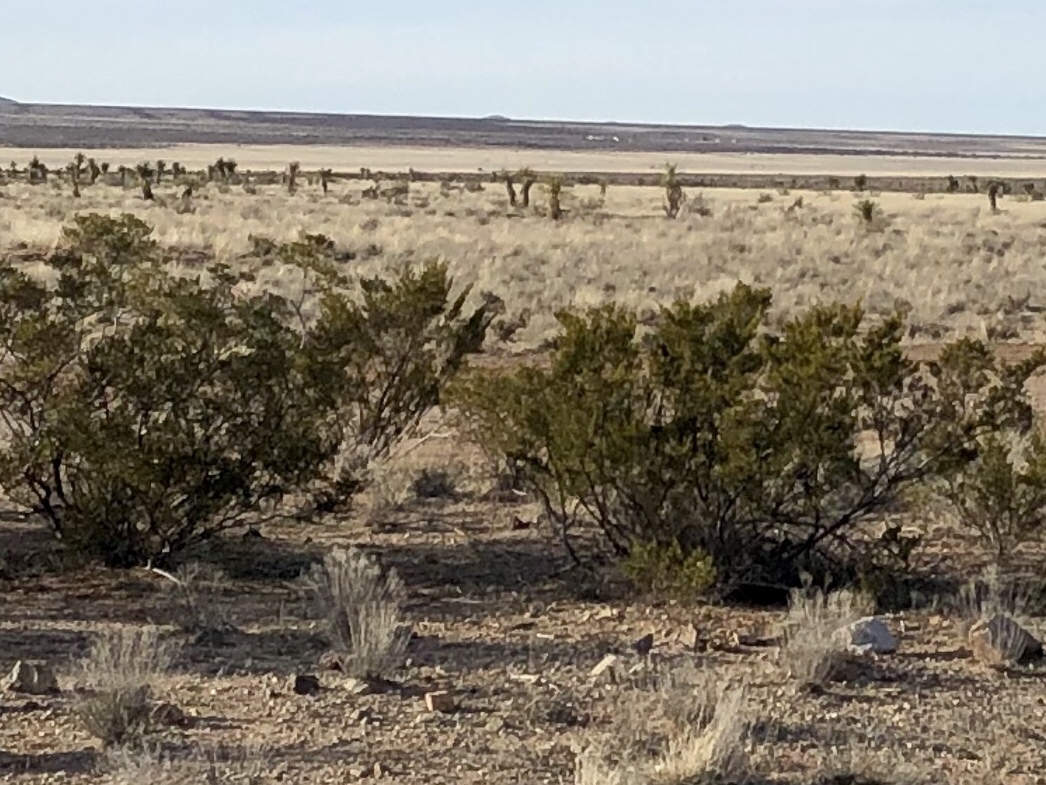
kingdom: Plantae
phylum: Tracheophyta
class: Magnoliopsida
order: Zygophyllales
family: Zygophyllaceae
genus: Larrea
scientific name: Larrea tridentata
